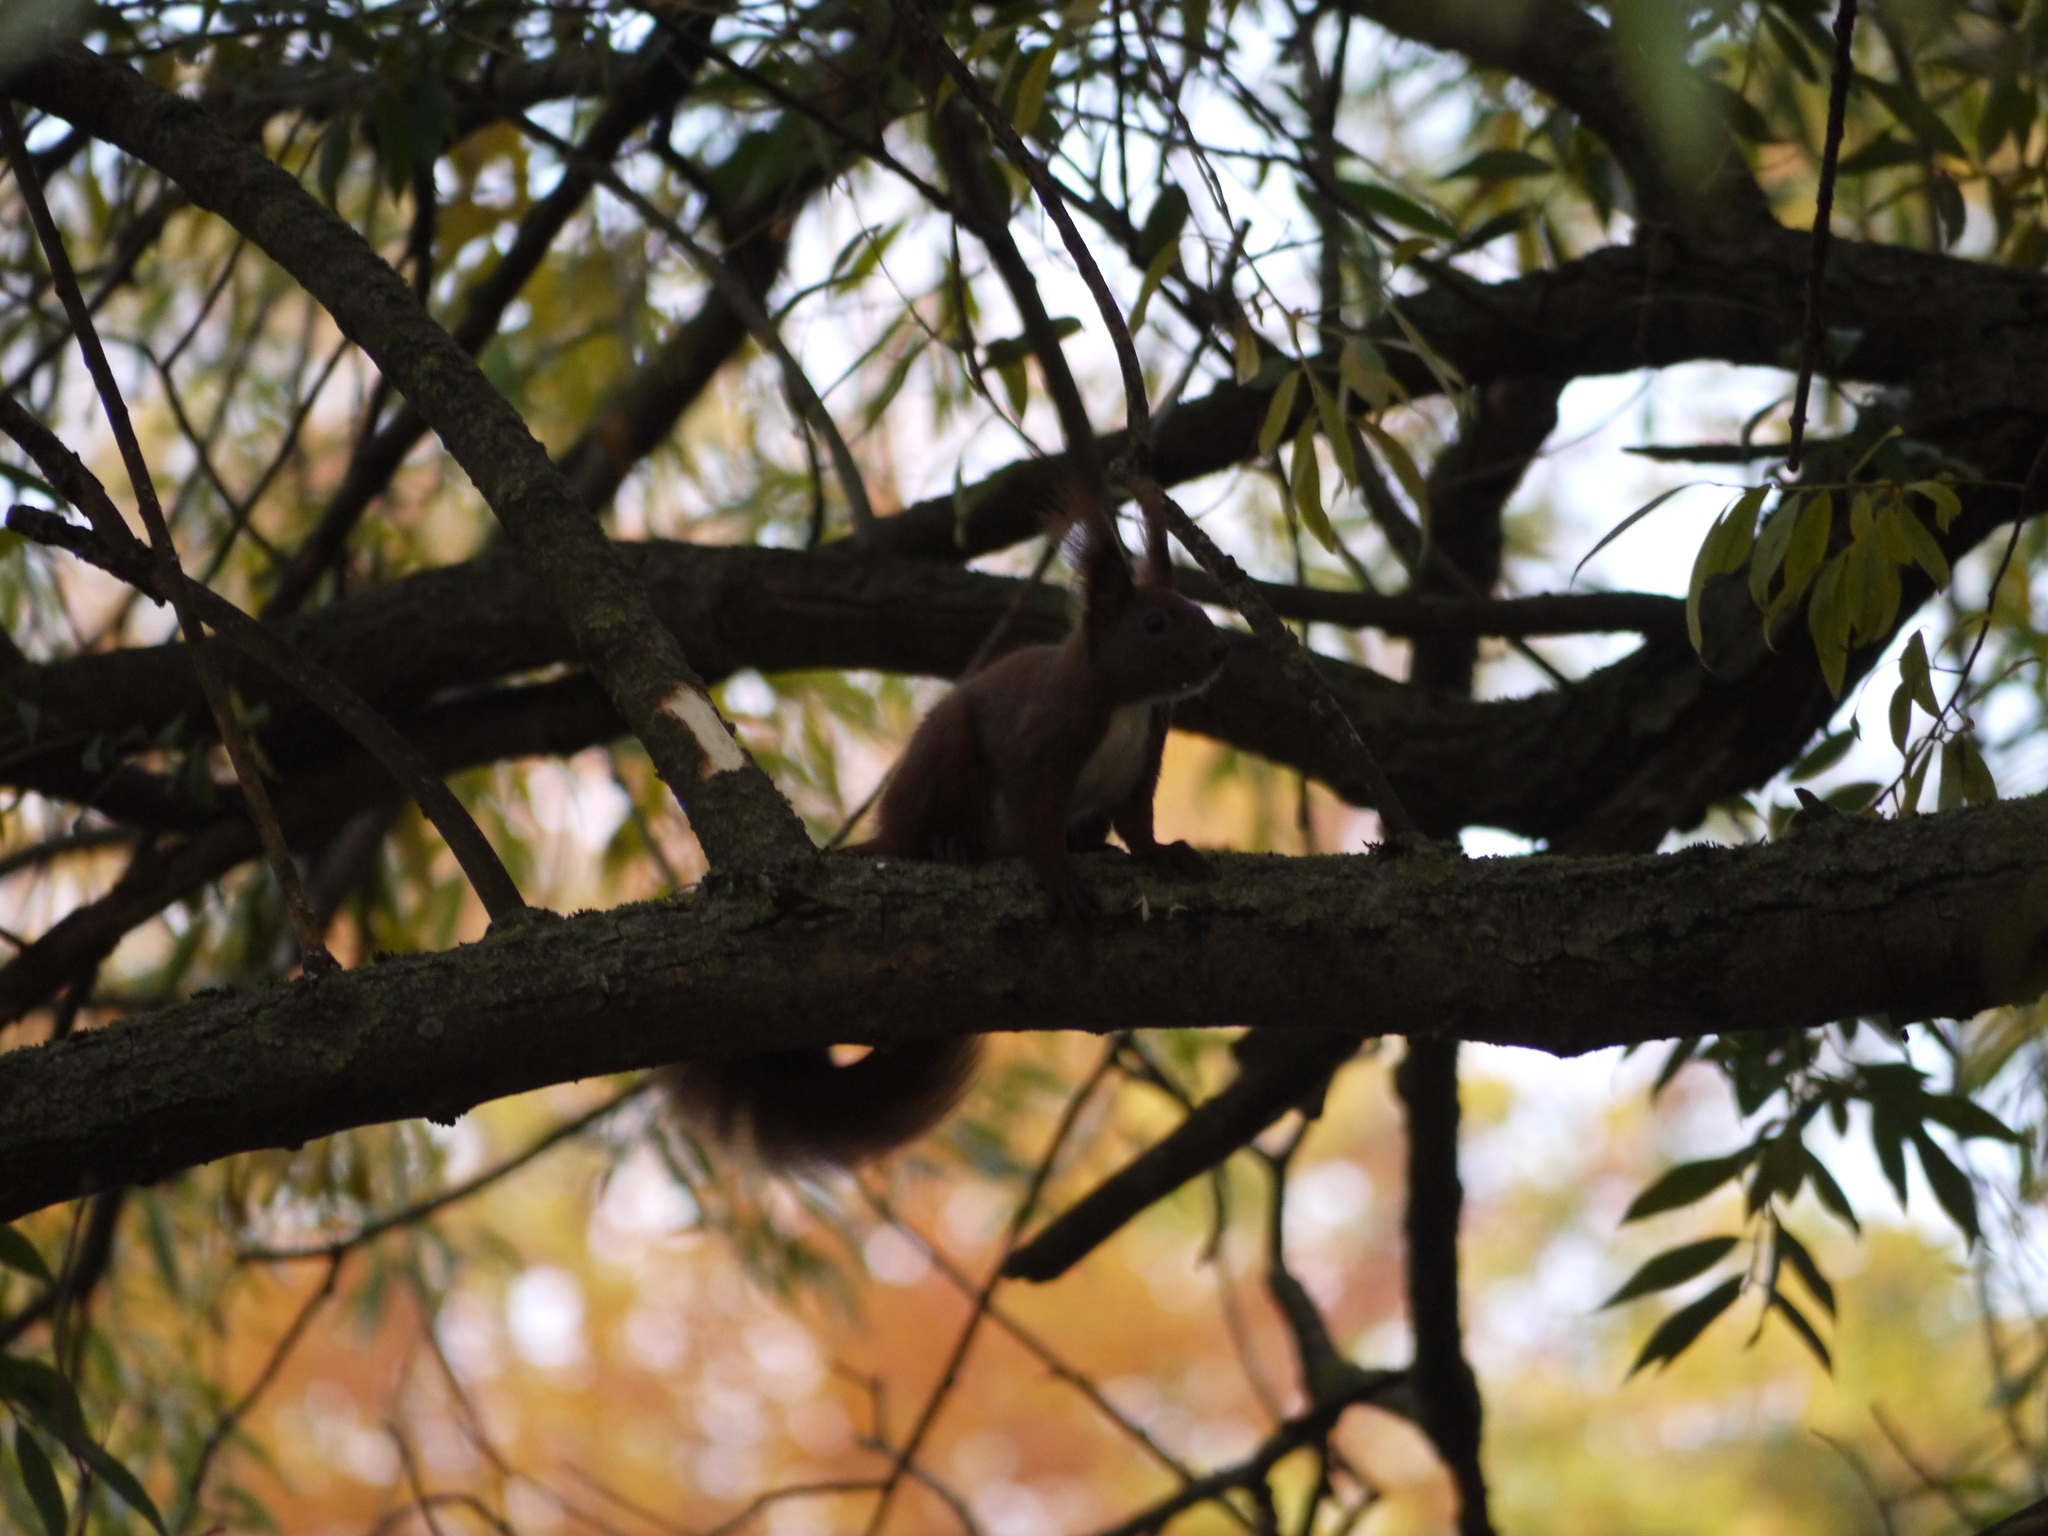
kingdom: Animalia
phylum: Chordata
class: Mammalia
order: Rodentia
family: Sciuridae
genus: Sciurus
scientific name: Sciurus vulgaris
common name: Eurasian red squirrel
